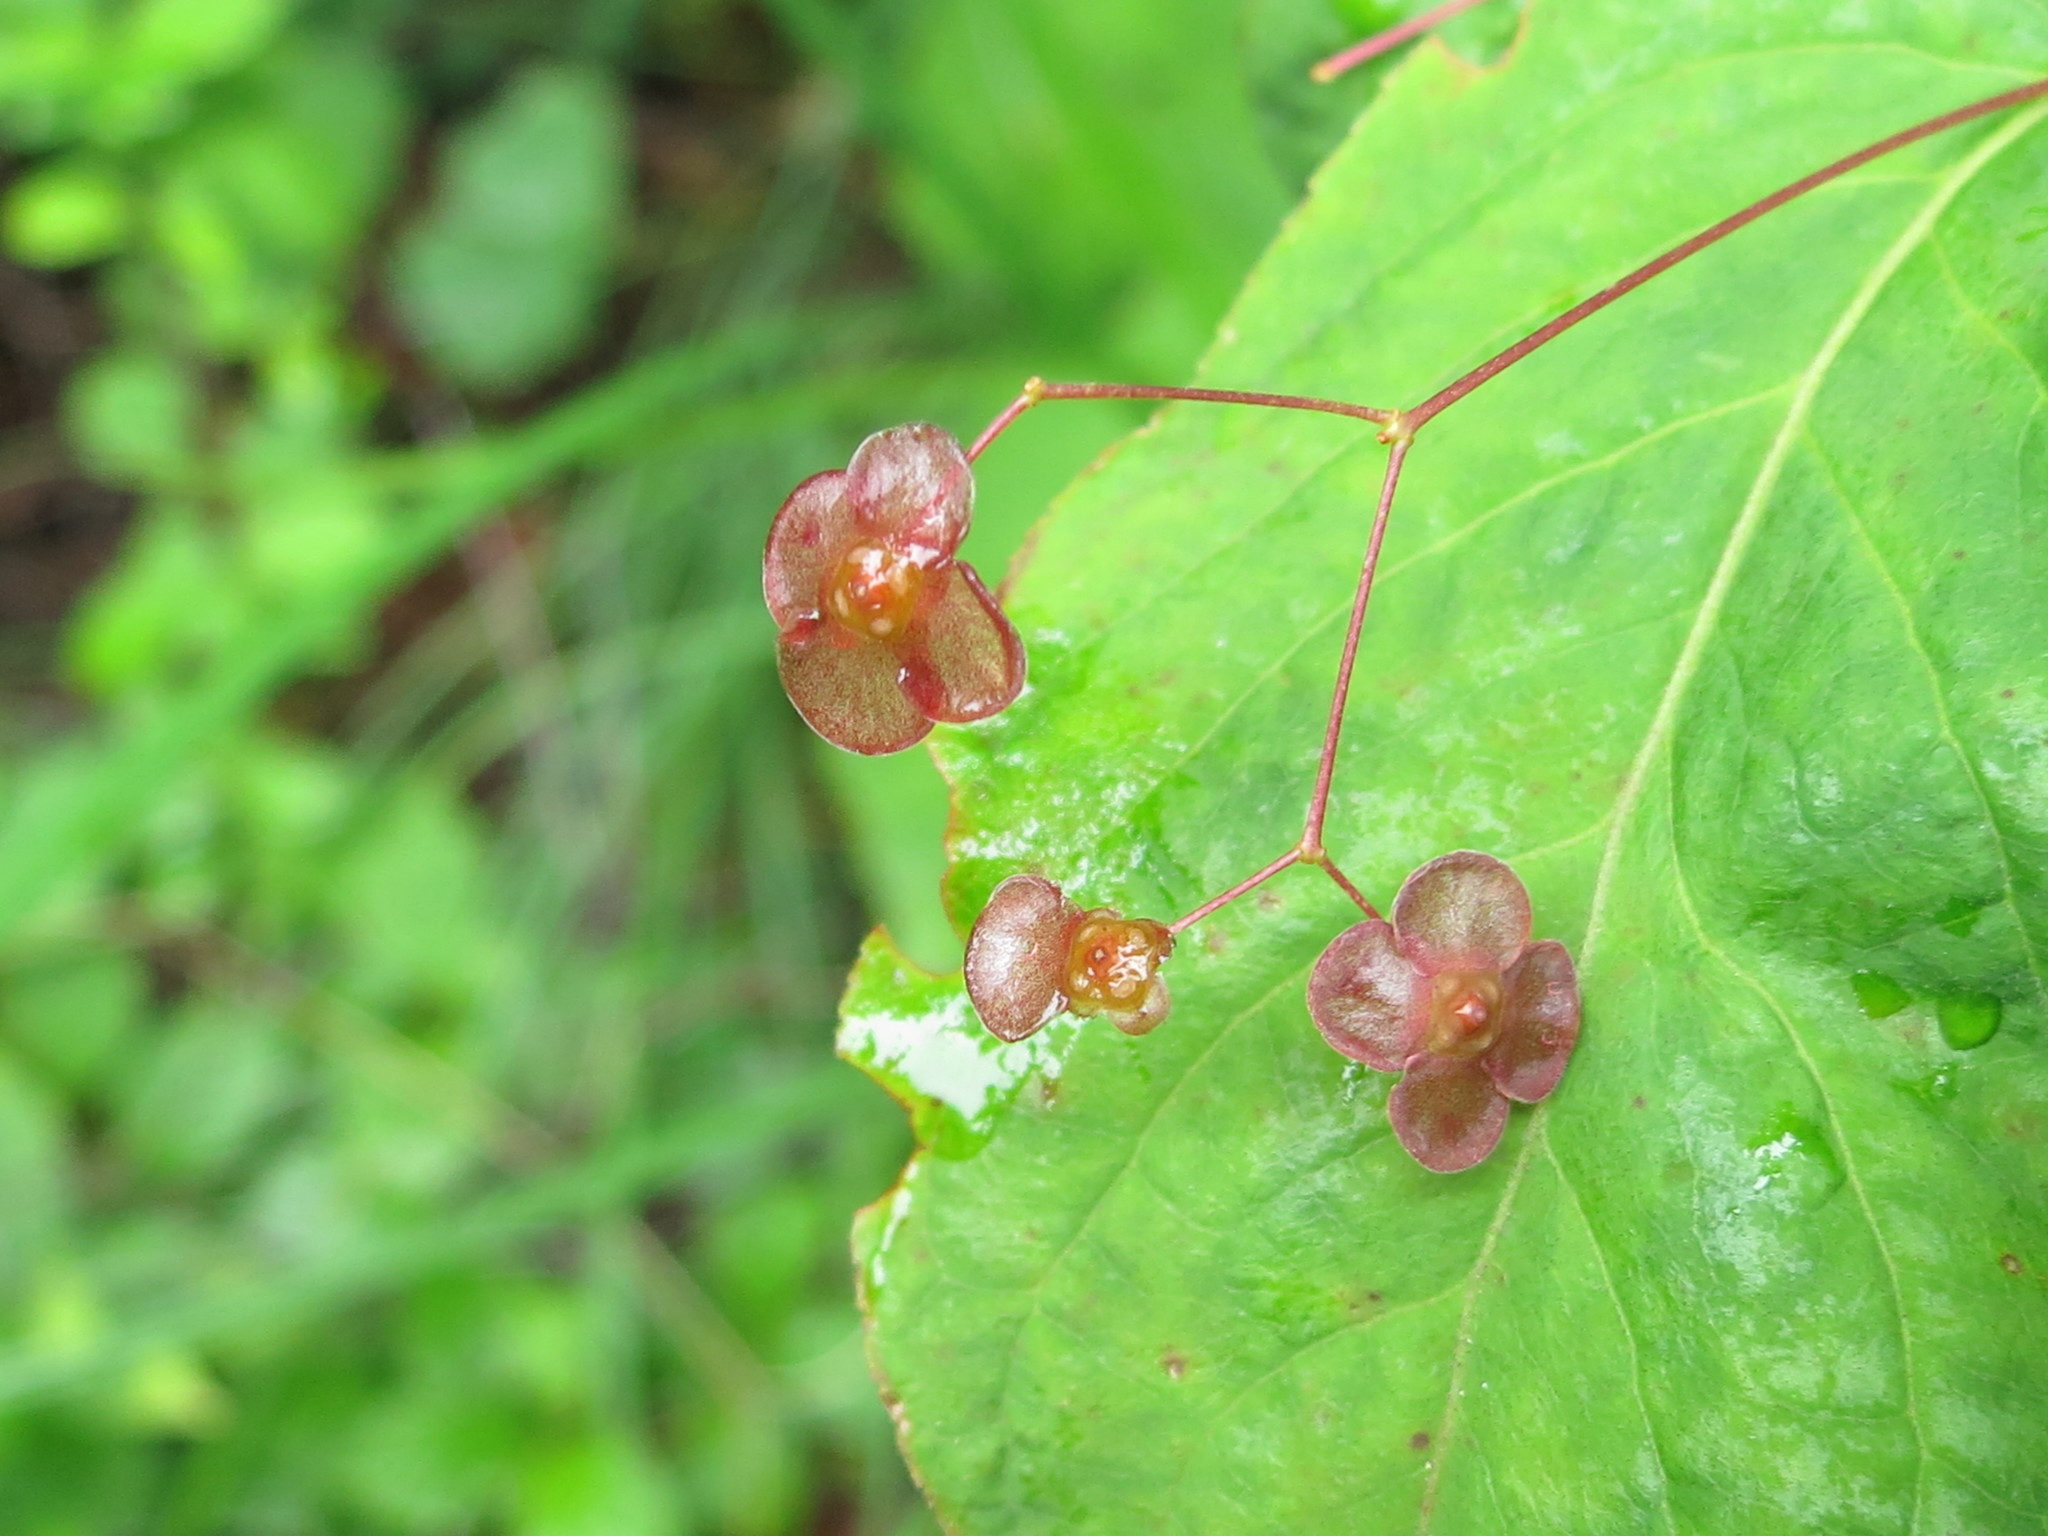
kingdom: Plantae
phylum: Tracheophyta
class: Magnoliopsida
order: Celastrales
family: Celastraceae
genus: Euonymus
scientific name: Euonymus verrucosus
